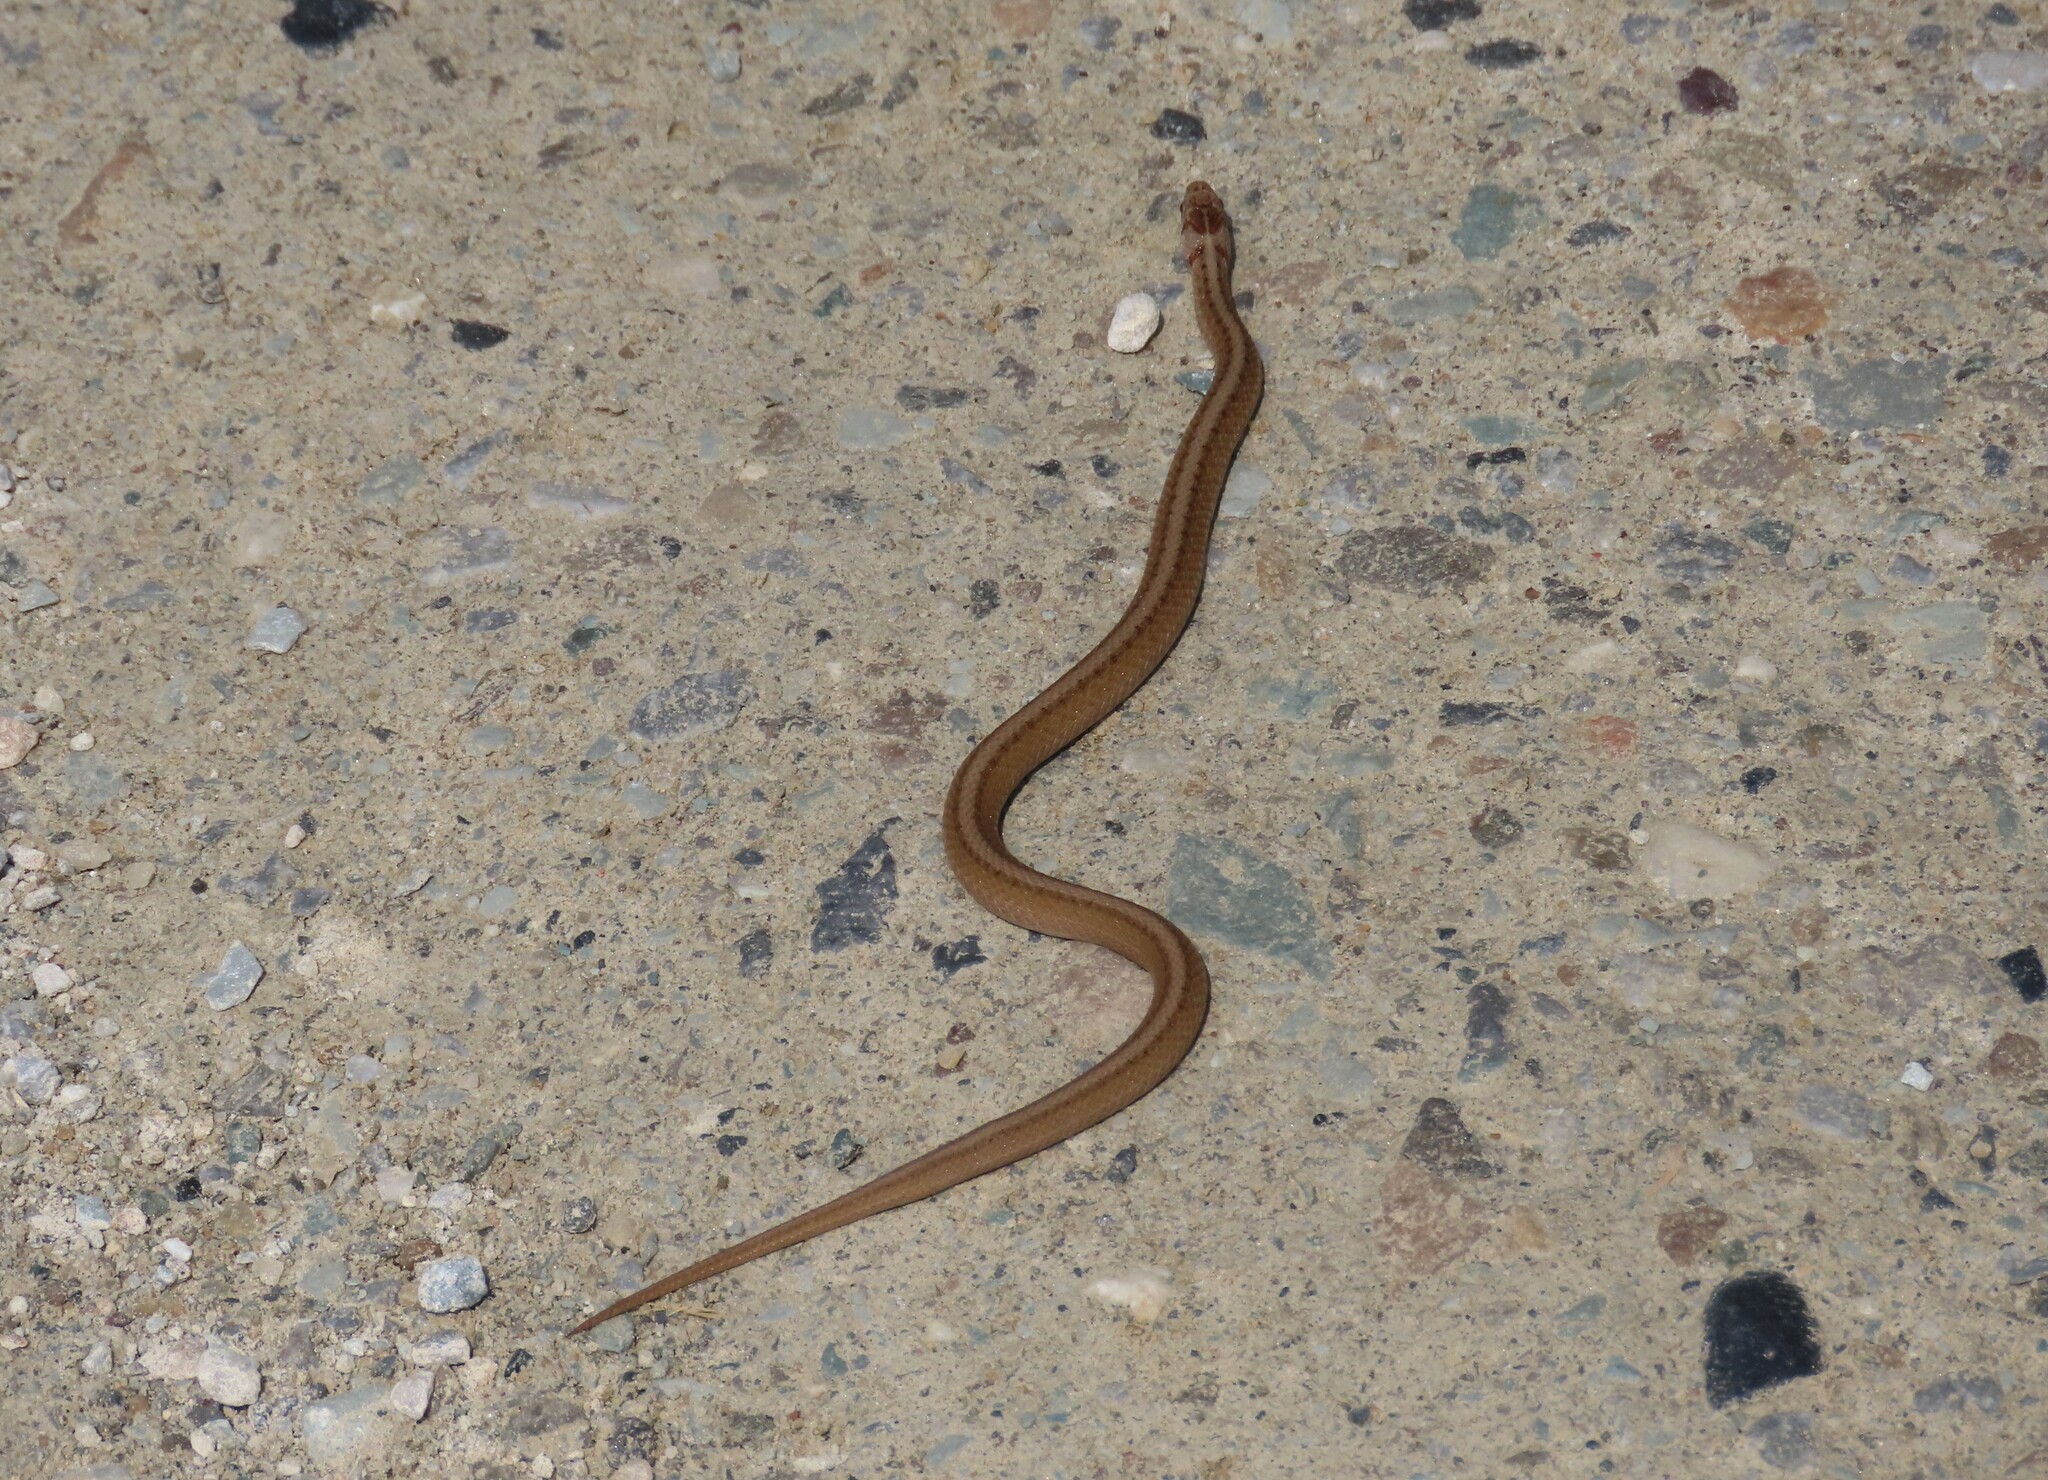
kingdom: Animalia
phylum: Chordata
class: Squamata
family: Colubridae
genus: Storeria
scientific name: Storeria dekayi
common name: (dekay’s) brown snake
